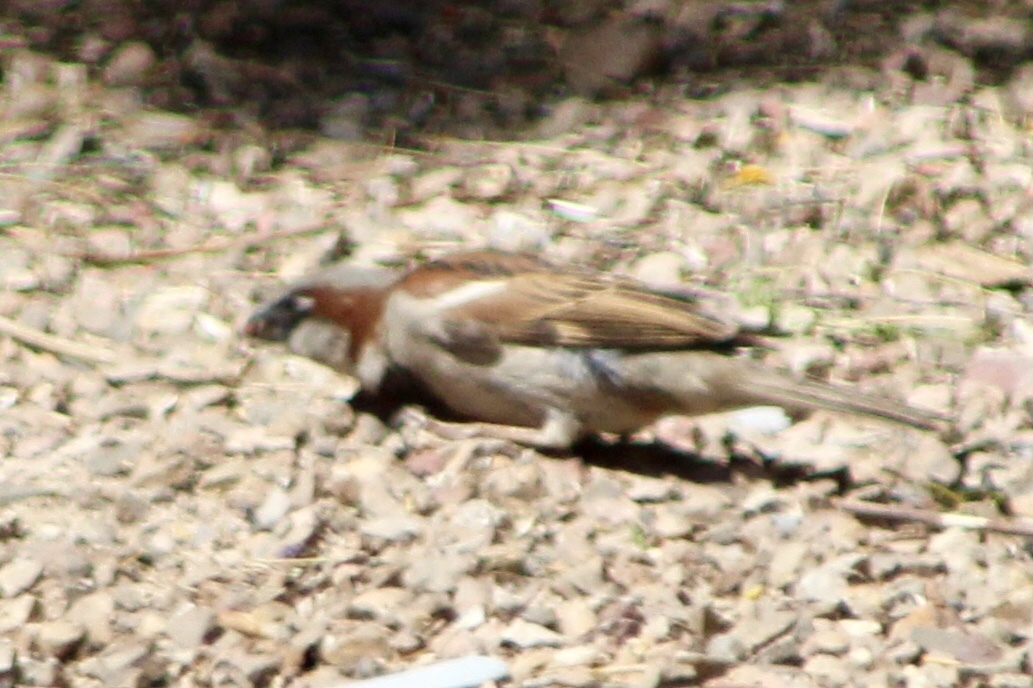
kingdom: Animalia
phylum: Chordata
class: Aves
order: Passeriformes
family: Passeridae
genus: Passer
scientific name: Passer domesticus
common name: House sparrow
